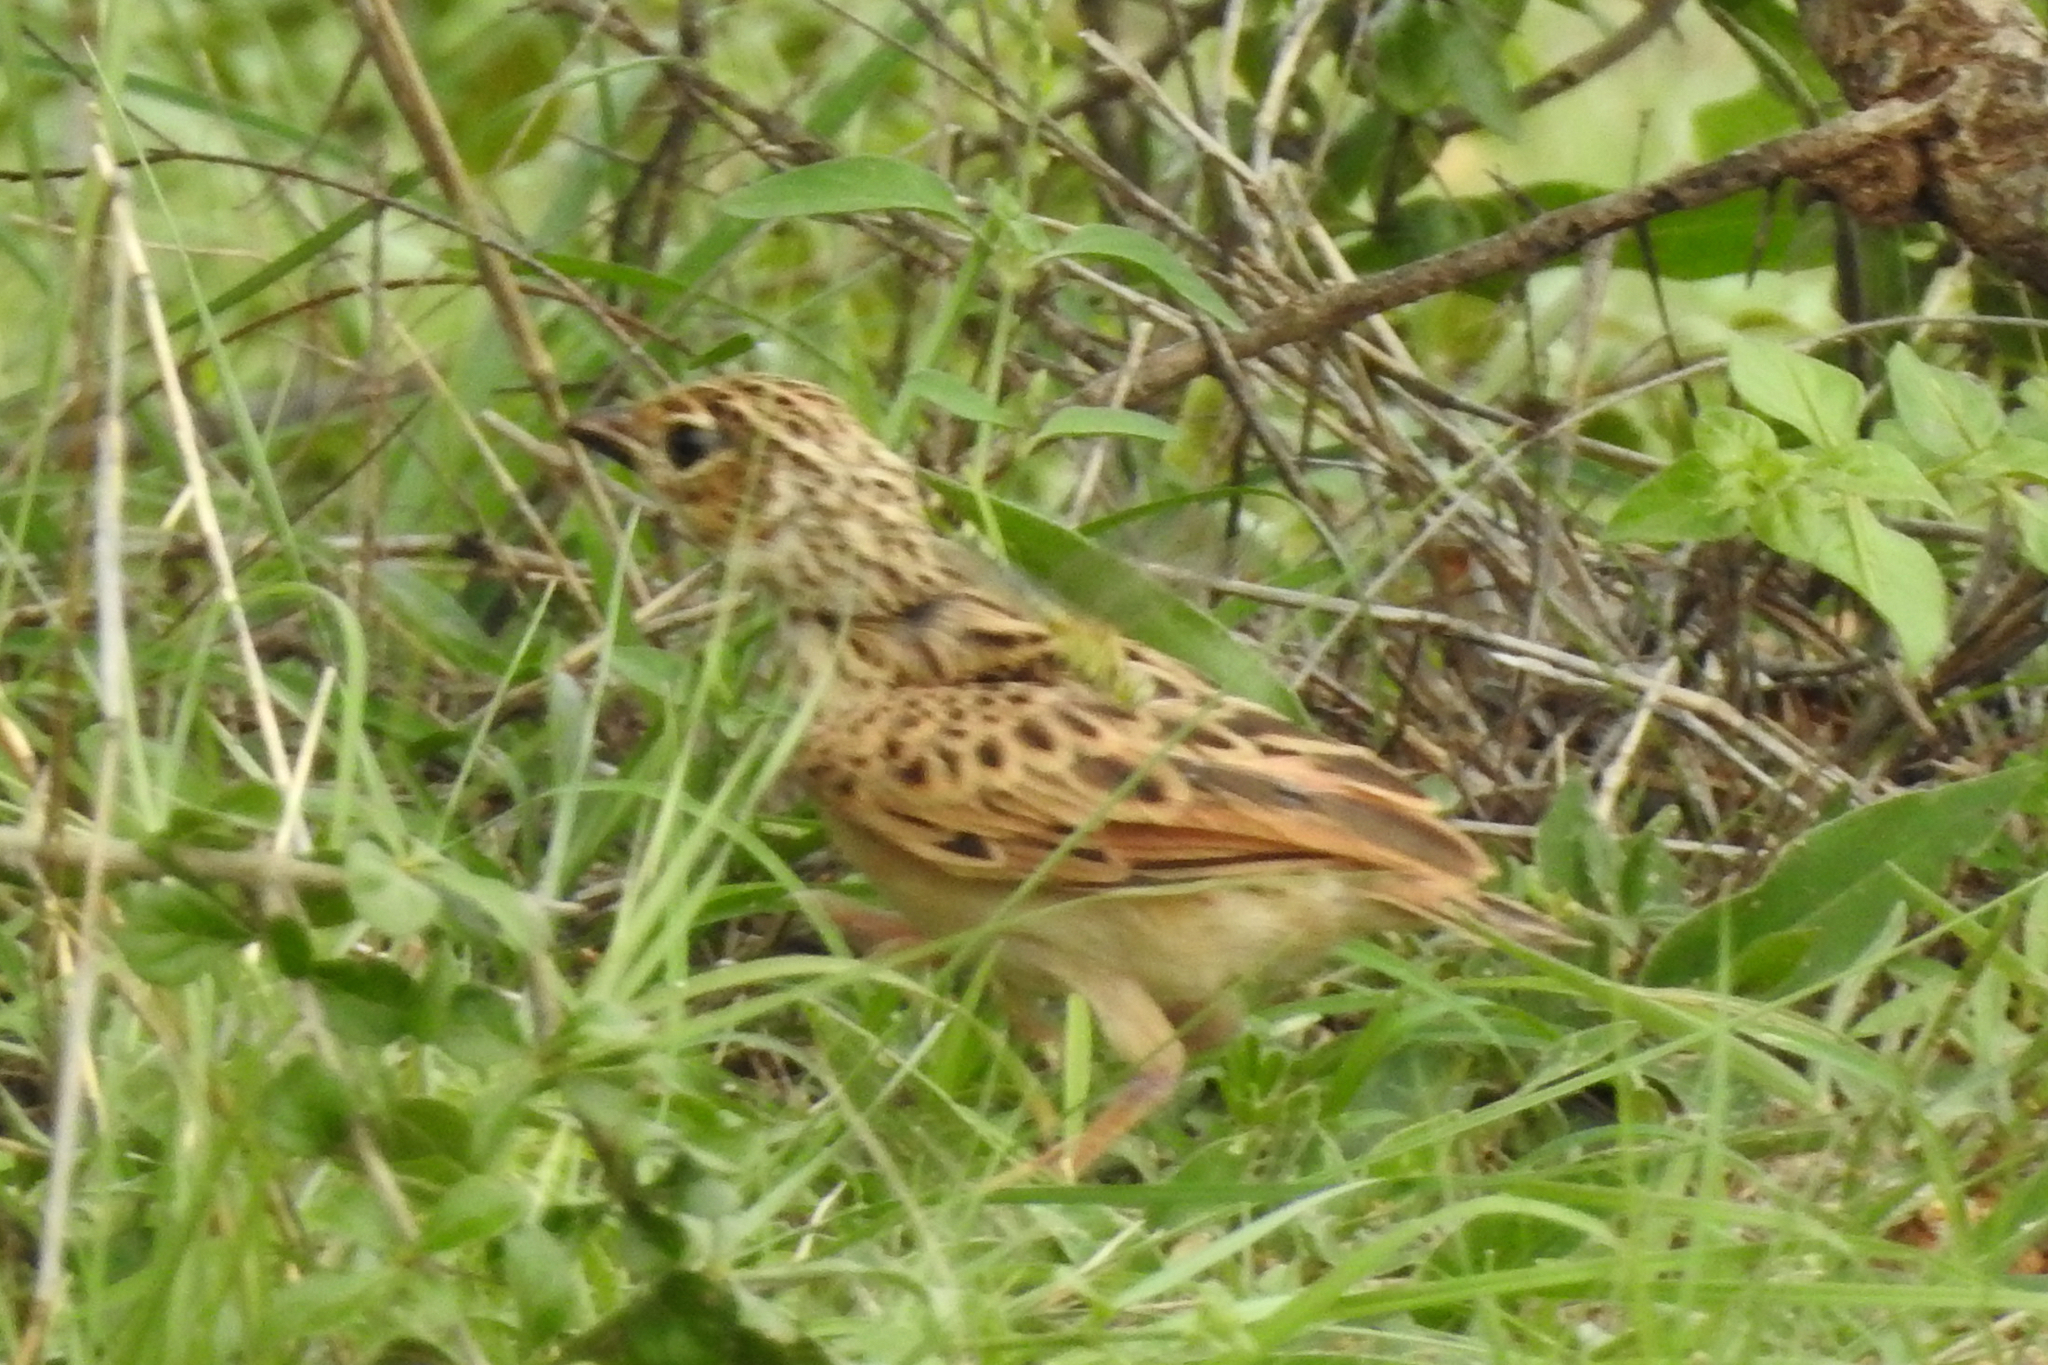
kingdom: Animalia
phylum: Chordata
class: Aves
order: Passeriformes
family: Alaudidae
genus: Mirafra
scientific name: Mirafra affinis
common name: Jerdon's bushlark
